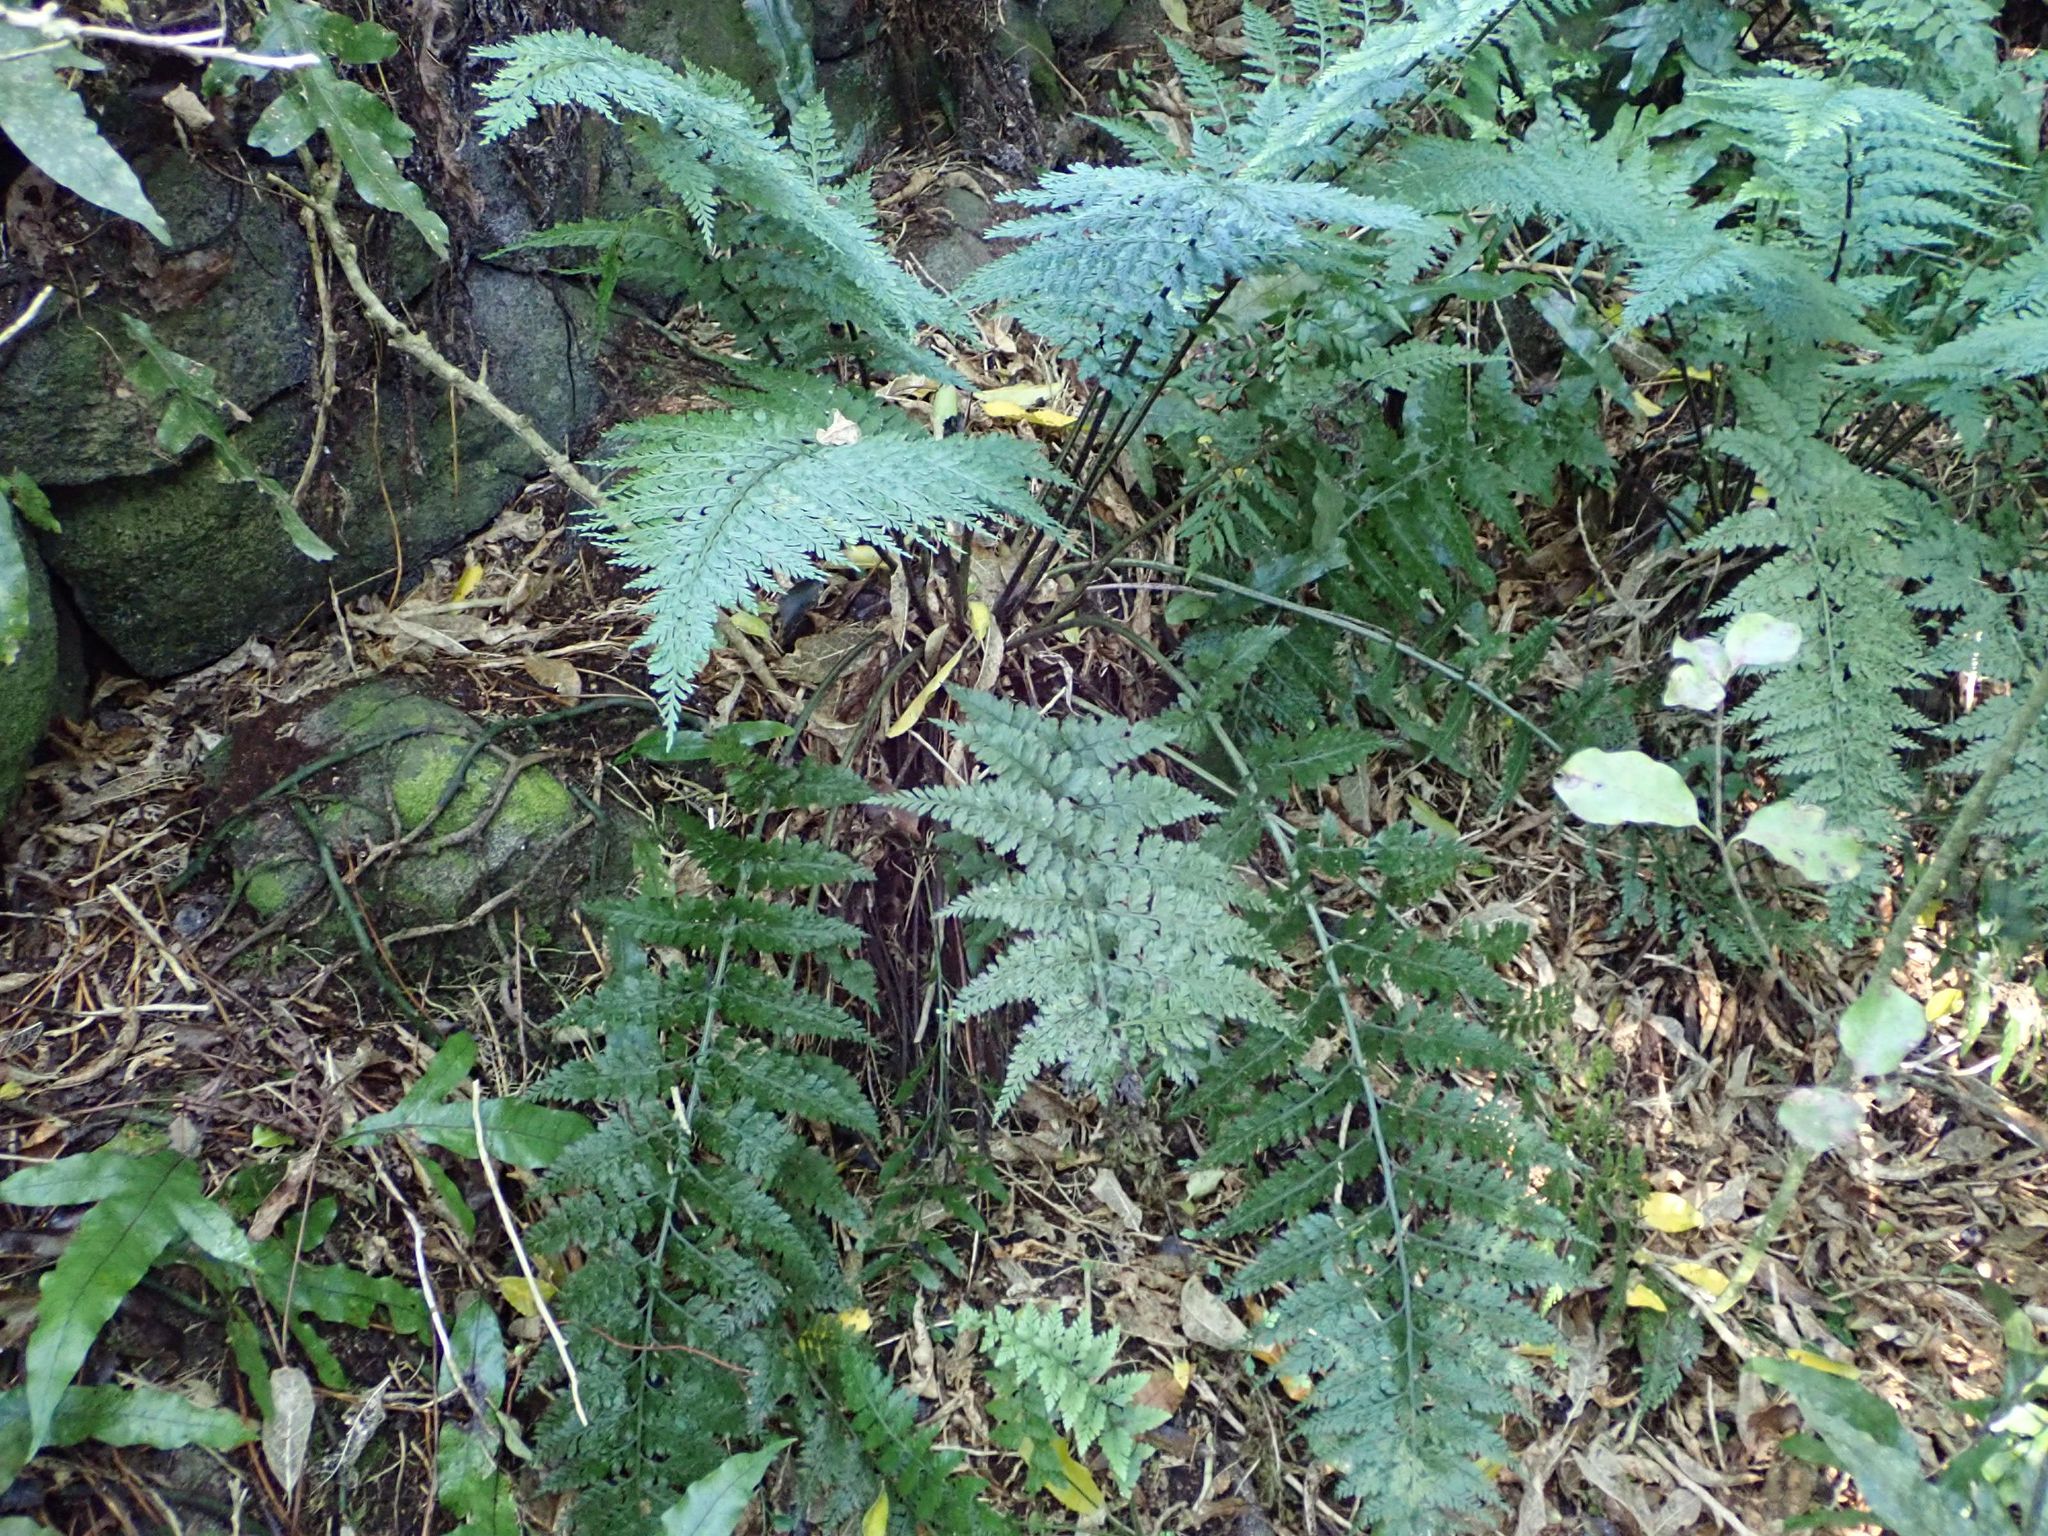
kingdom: Plantae
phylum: Tracheophyta
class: Polypodiopsida
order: Polypodiales
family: Aspleniaceae
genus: Asplenium
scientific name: Asplenium
